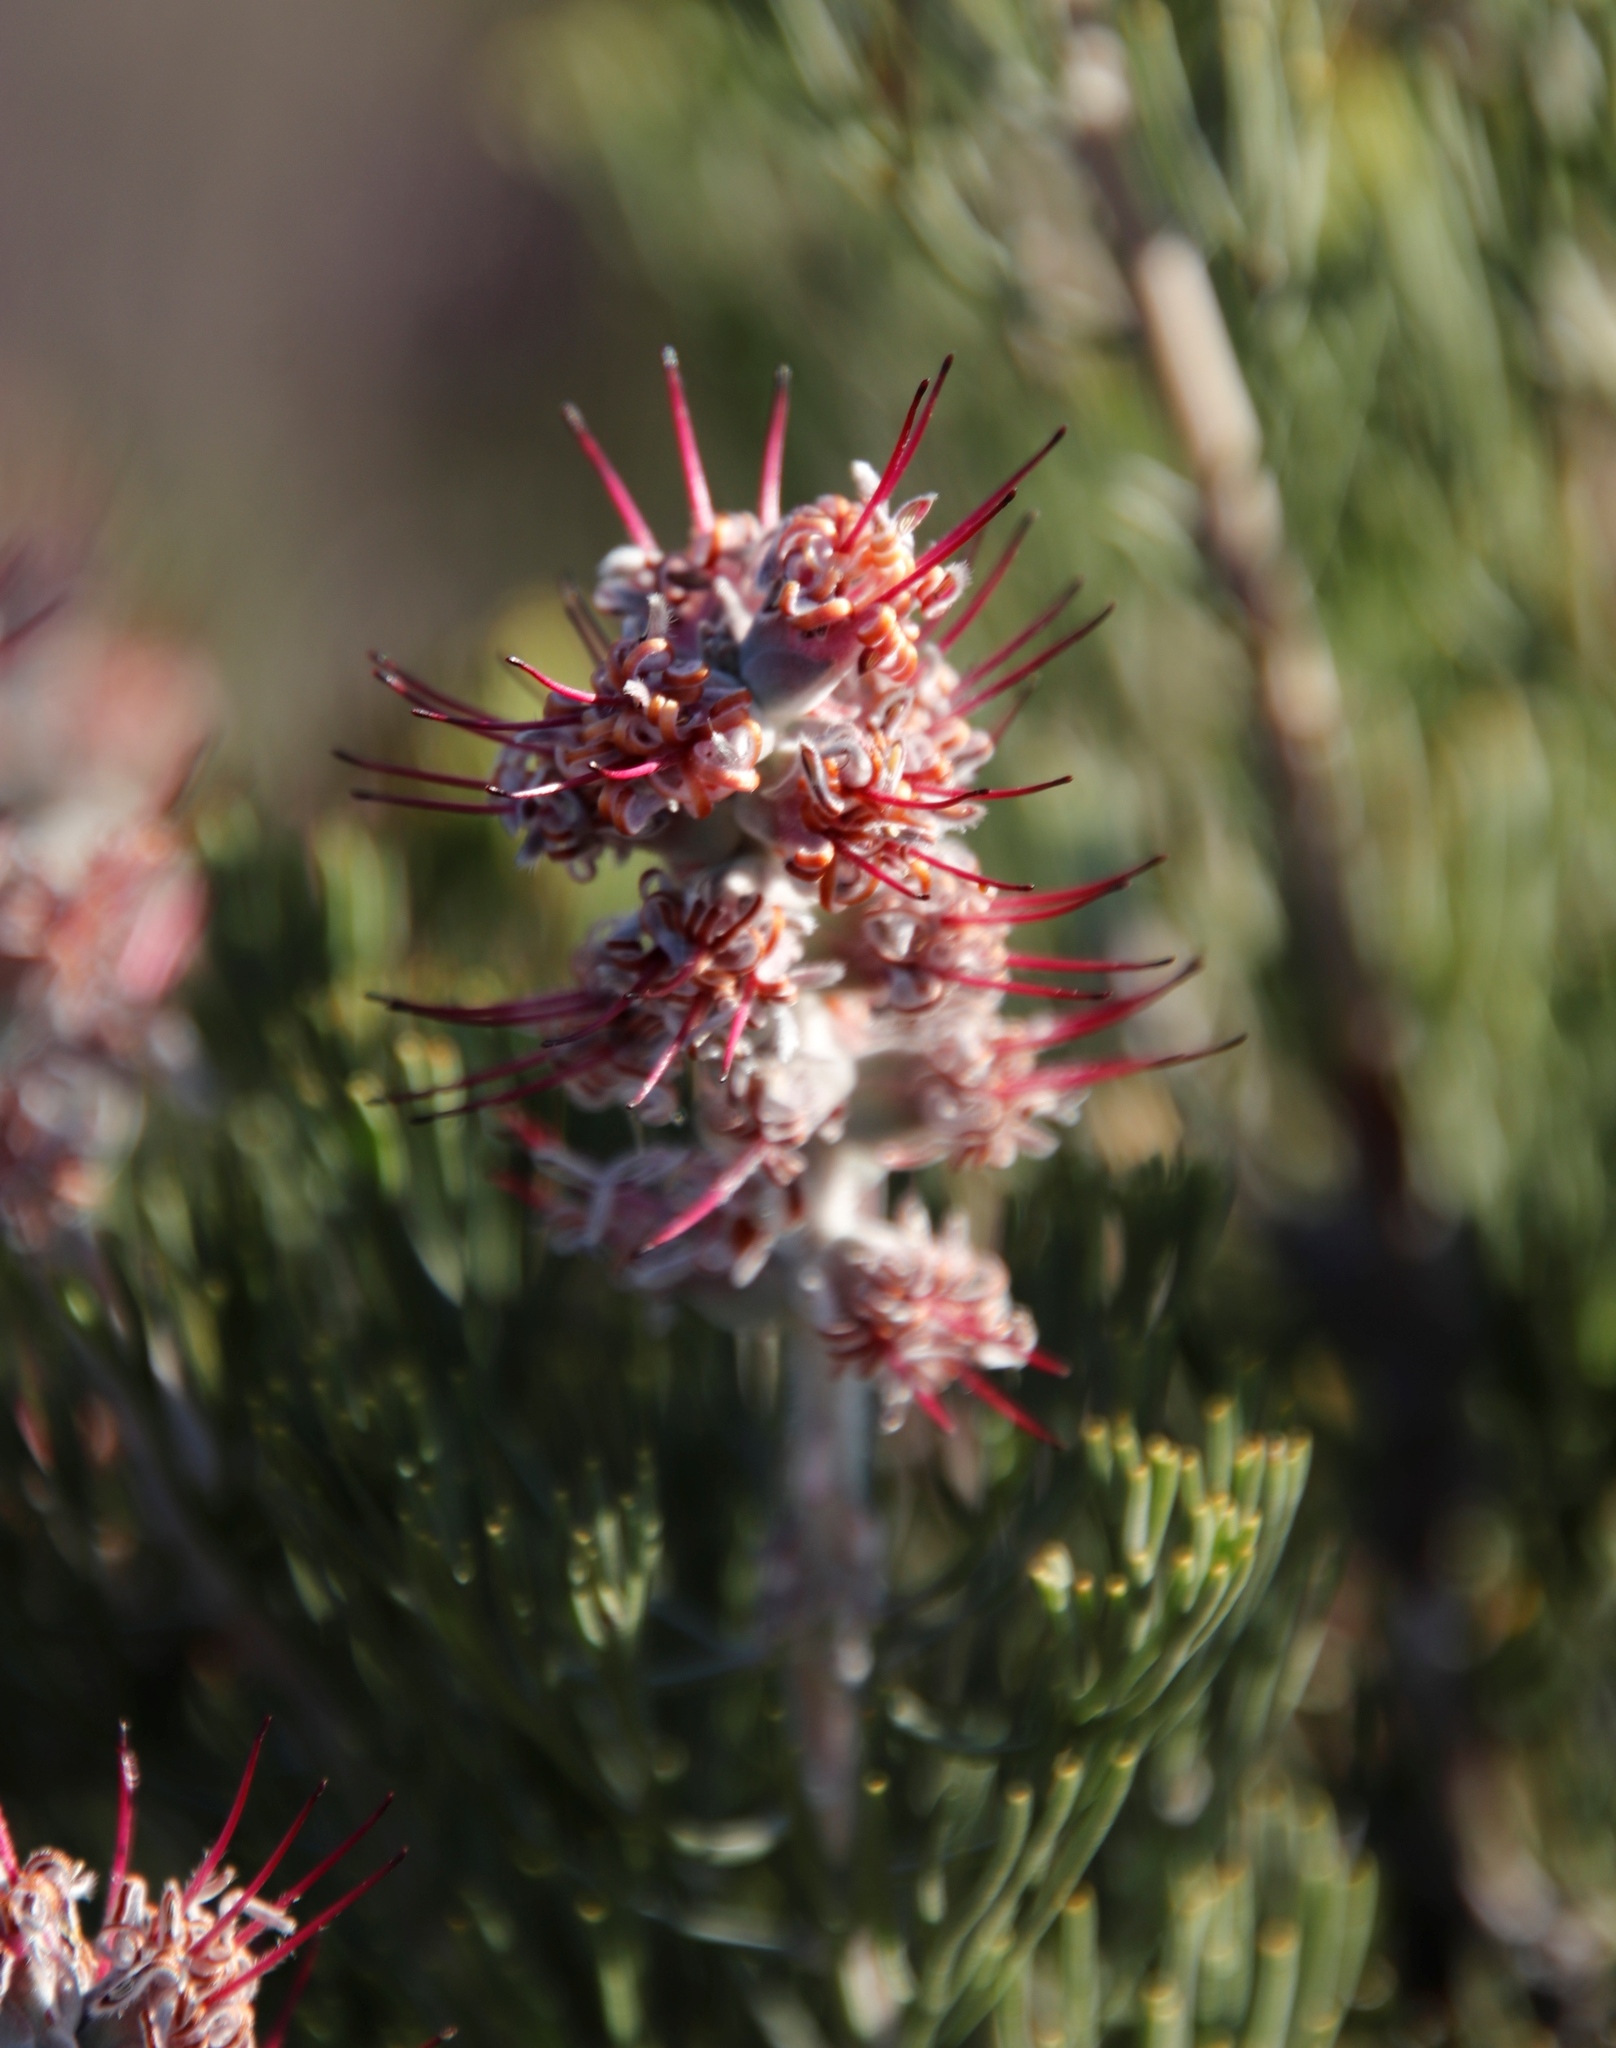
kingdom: Plantae
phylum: Tracheophyta
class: Magnoliopsida
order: Proteales
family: Proteaceae
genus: Paranomus
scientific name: Paranomus bracteolaris
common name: Bokkeveld tree sceptre
